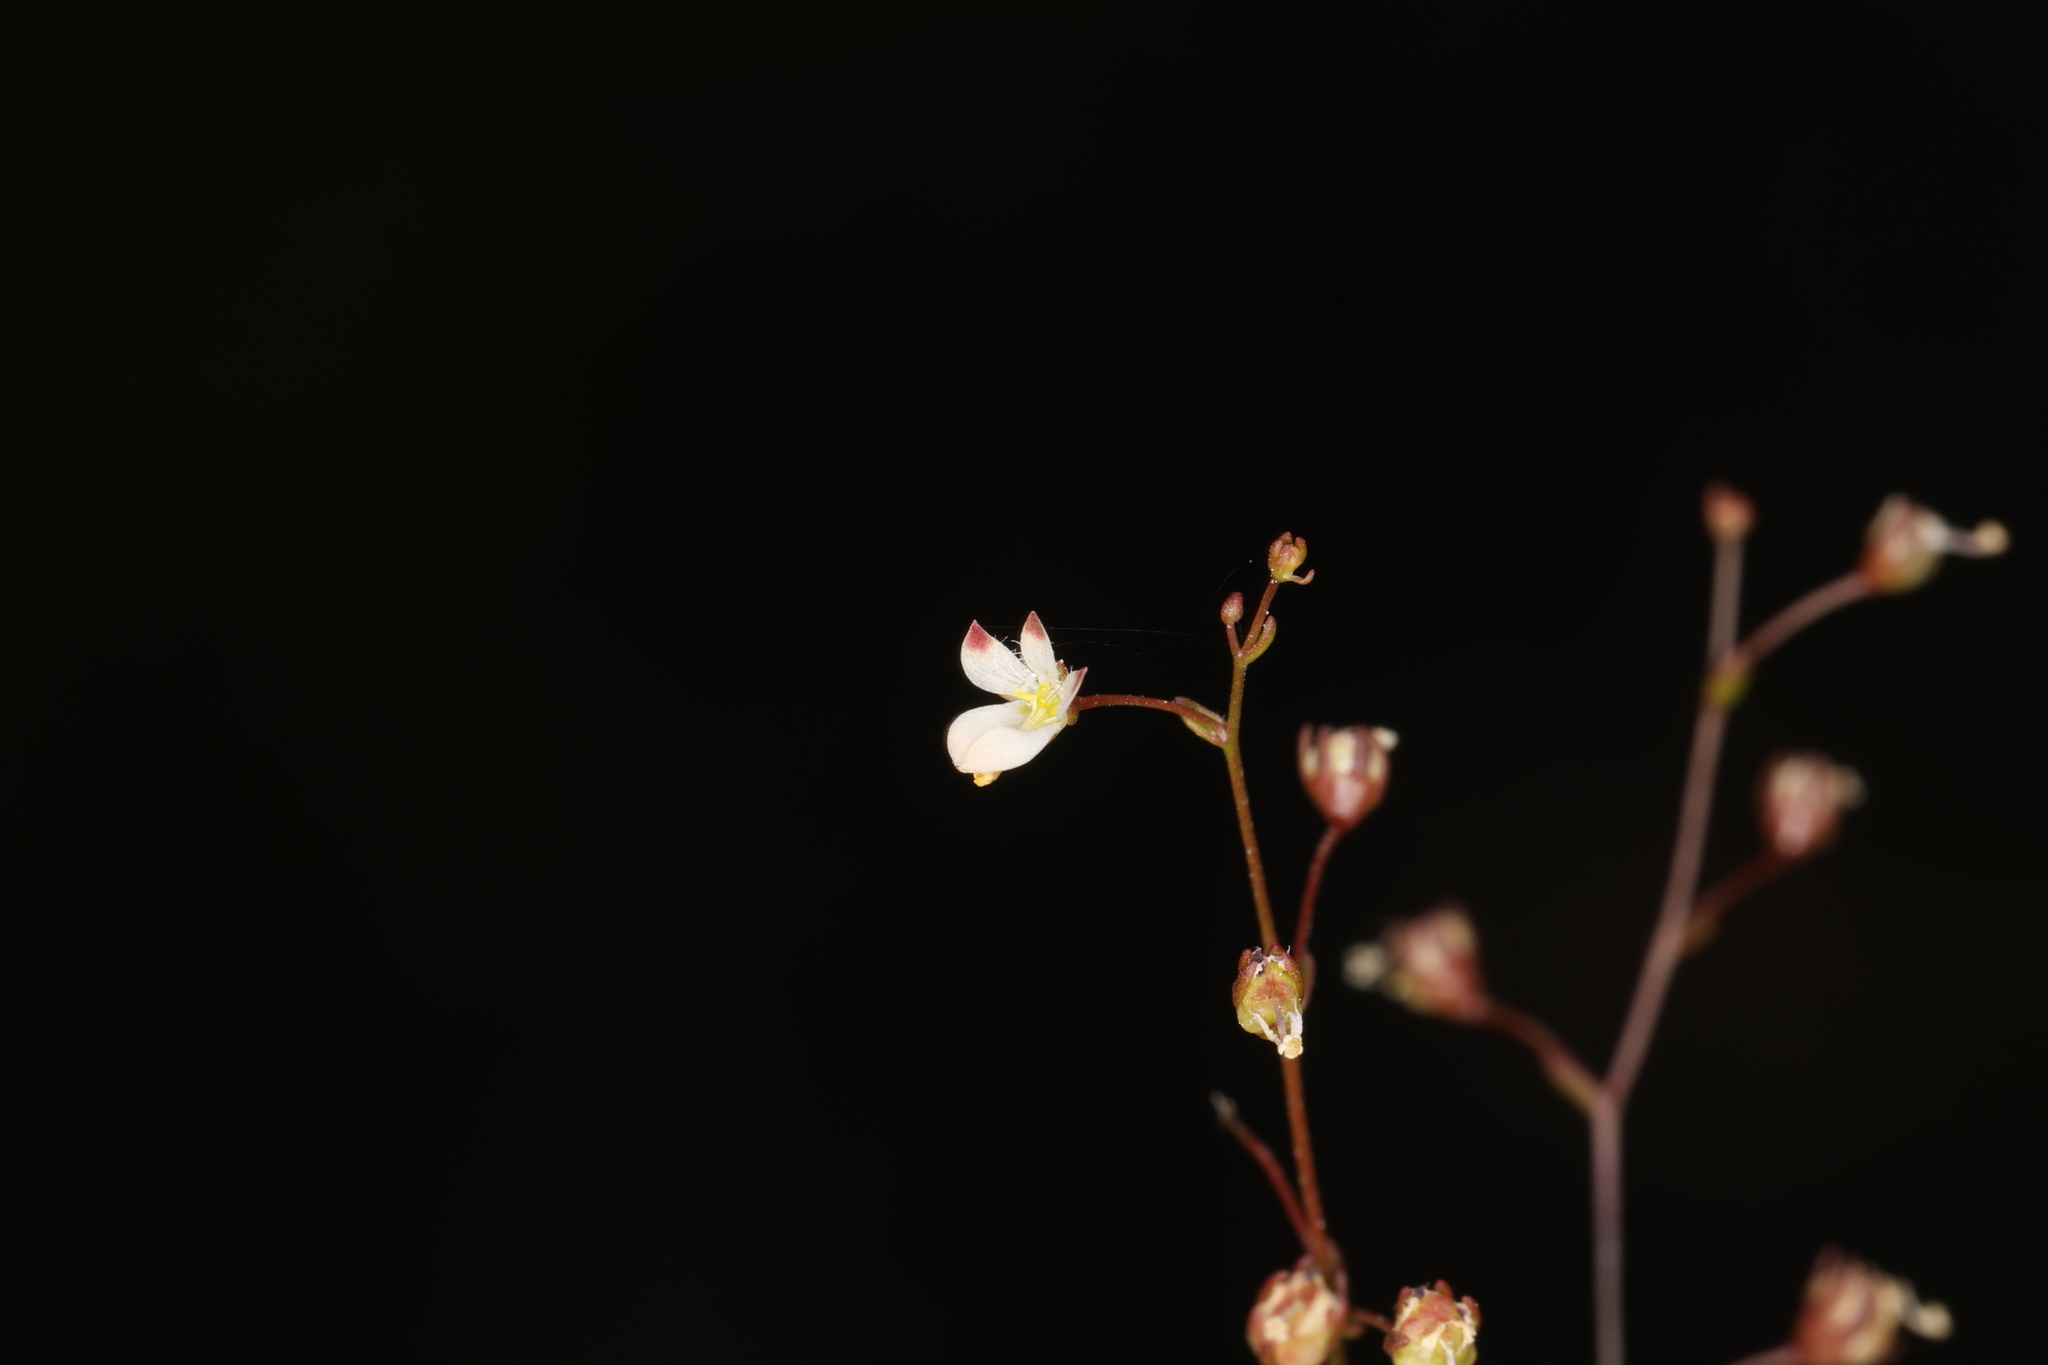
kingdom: Plantae
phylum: Tracheophyta
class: Magnoliopsida
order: Asterales
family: Campanulaceae
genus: Nemacladus
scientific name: Nemacladus orientalis
